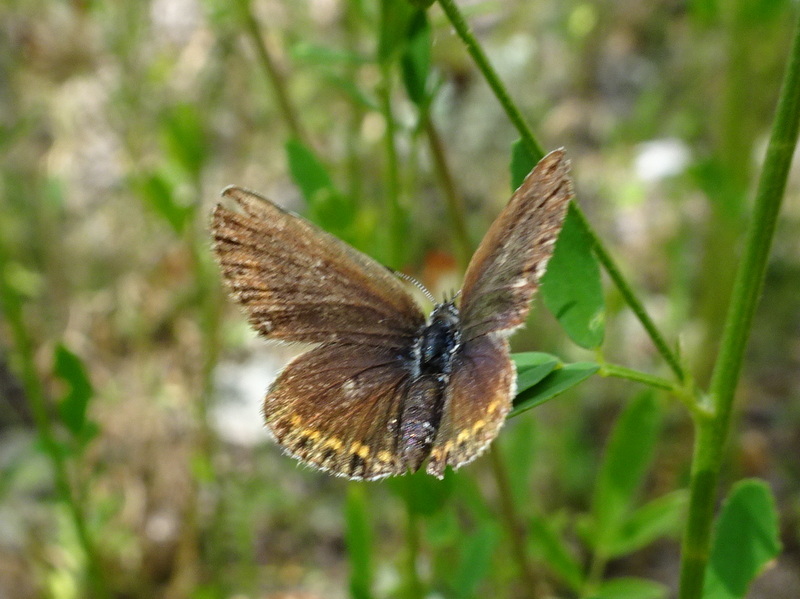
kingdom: Animalia
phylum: Arthropoda
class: Insecta
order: Lepidoptera
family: Lycaenidae
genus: Plebejus
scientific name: Plebejus argus
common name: Silver-studded blue
